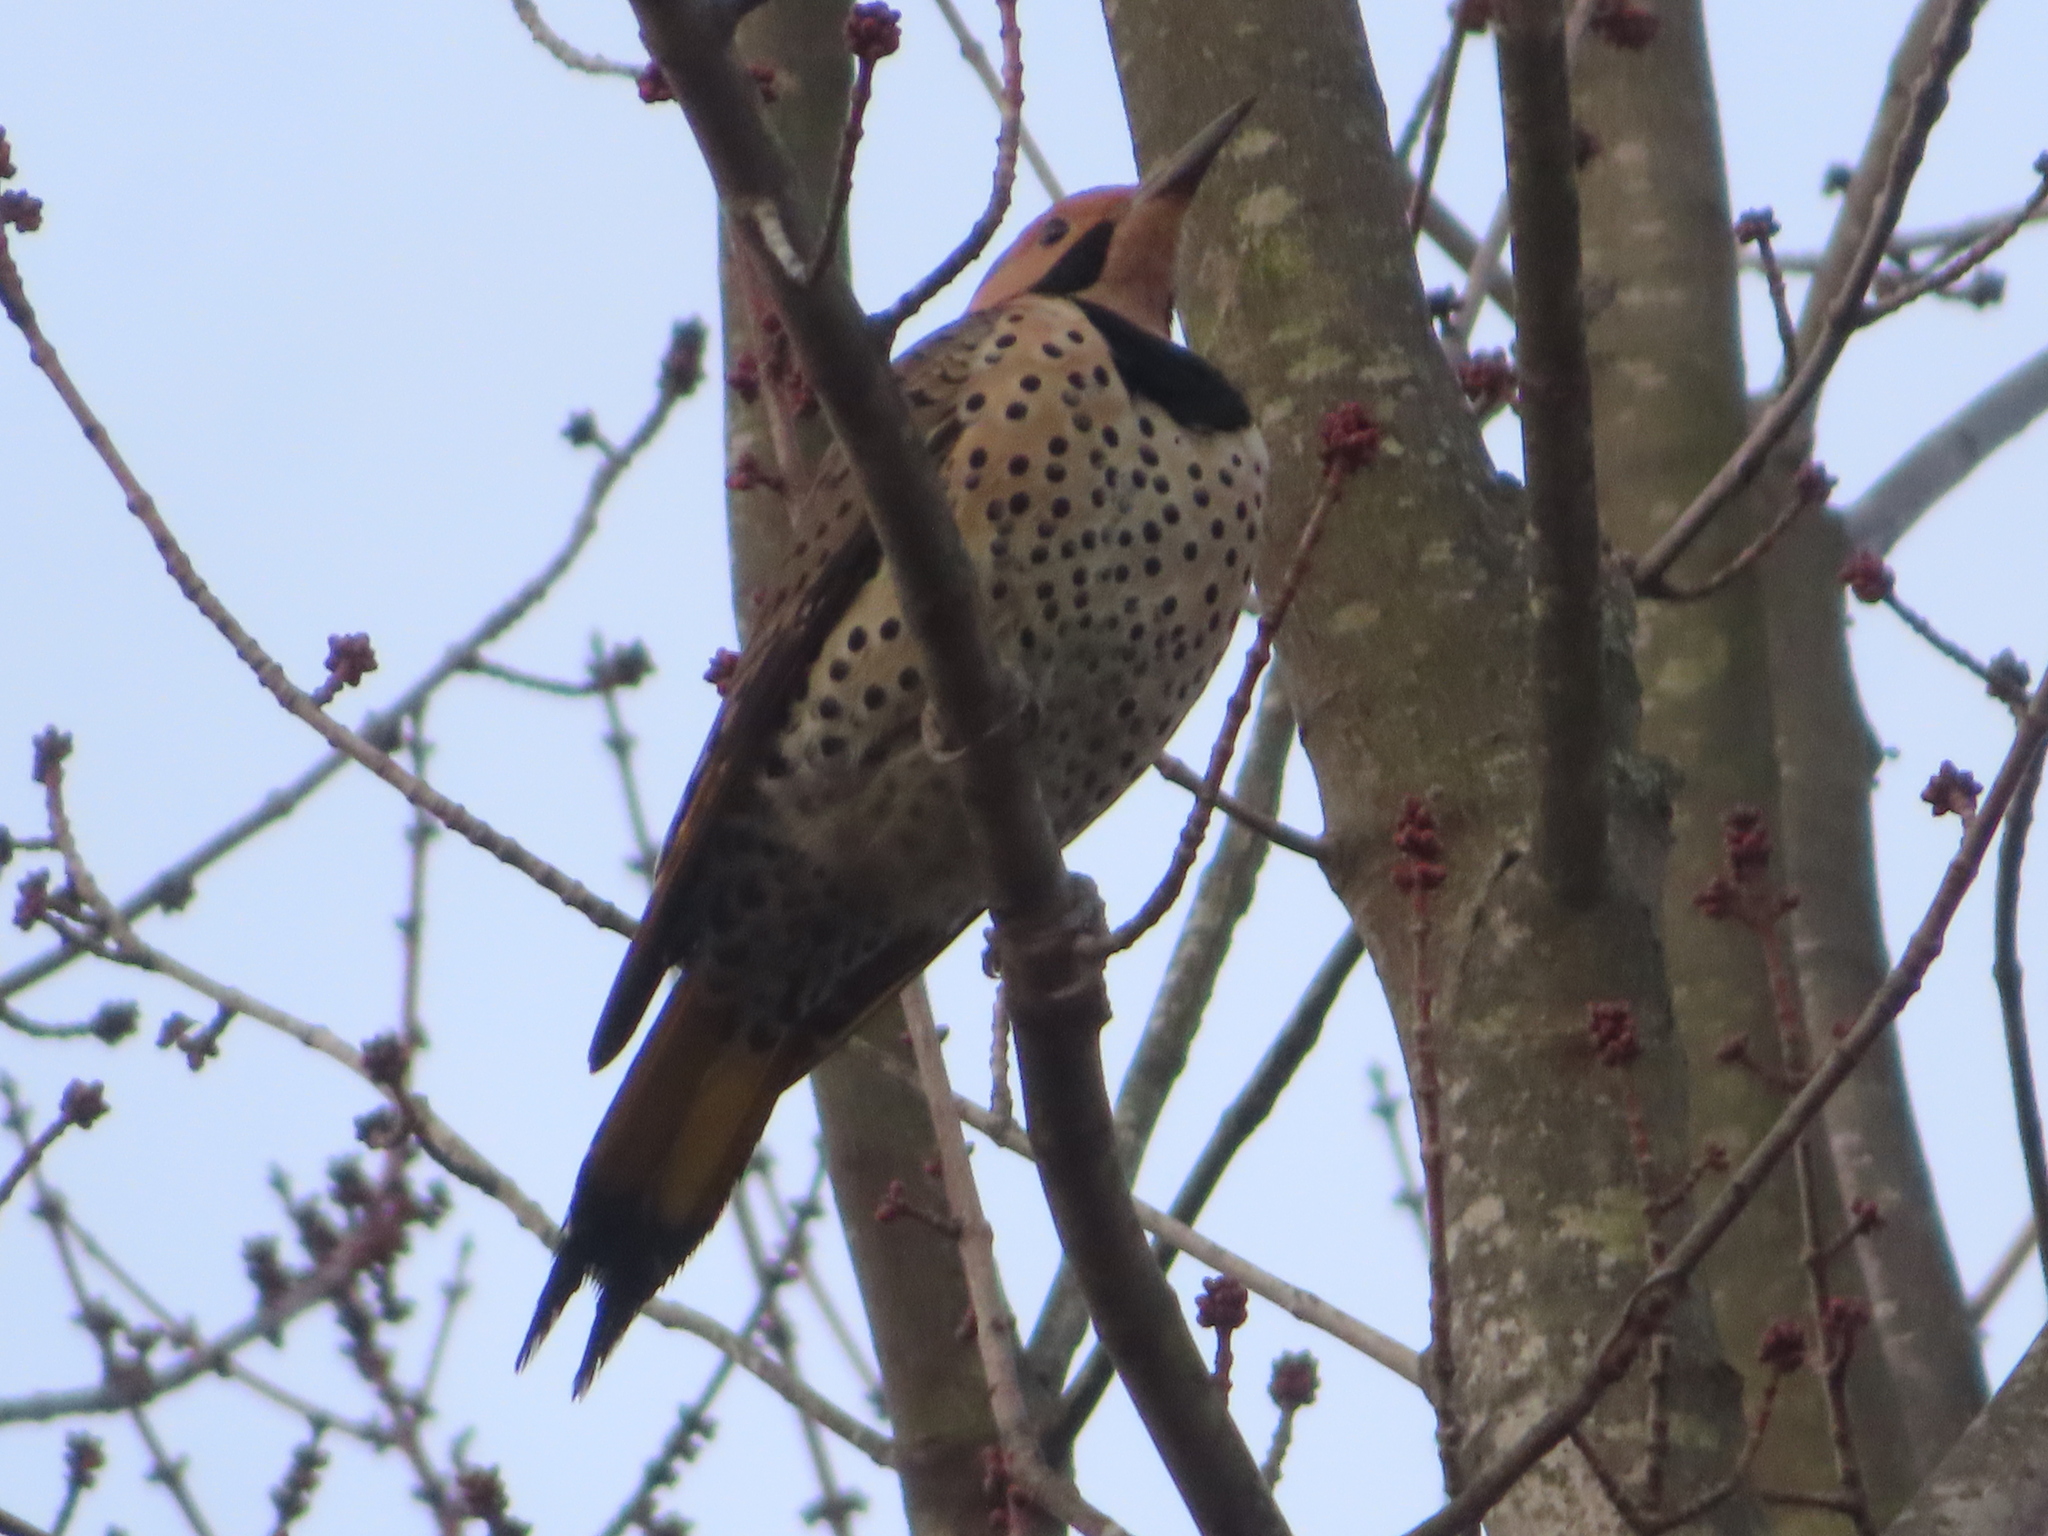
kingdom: Animalia
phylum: Chordata
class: Aves
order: Piciformes
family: Picidae
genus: Colaptes
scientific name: Colaptes auratus
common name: Northern flicker
